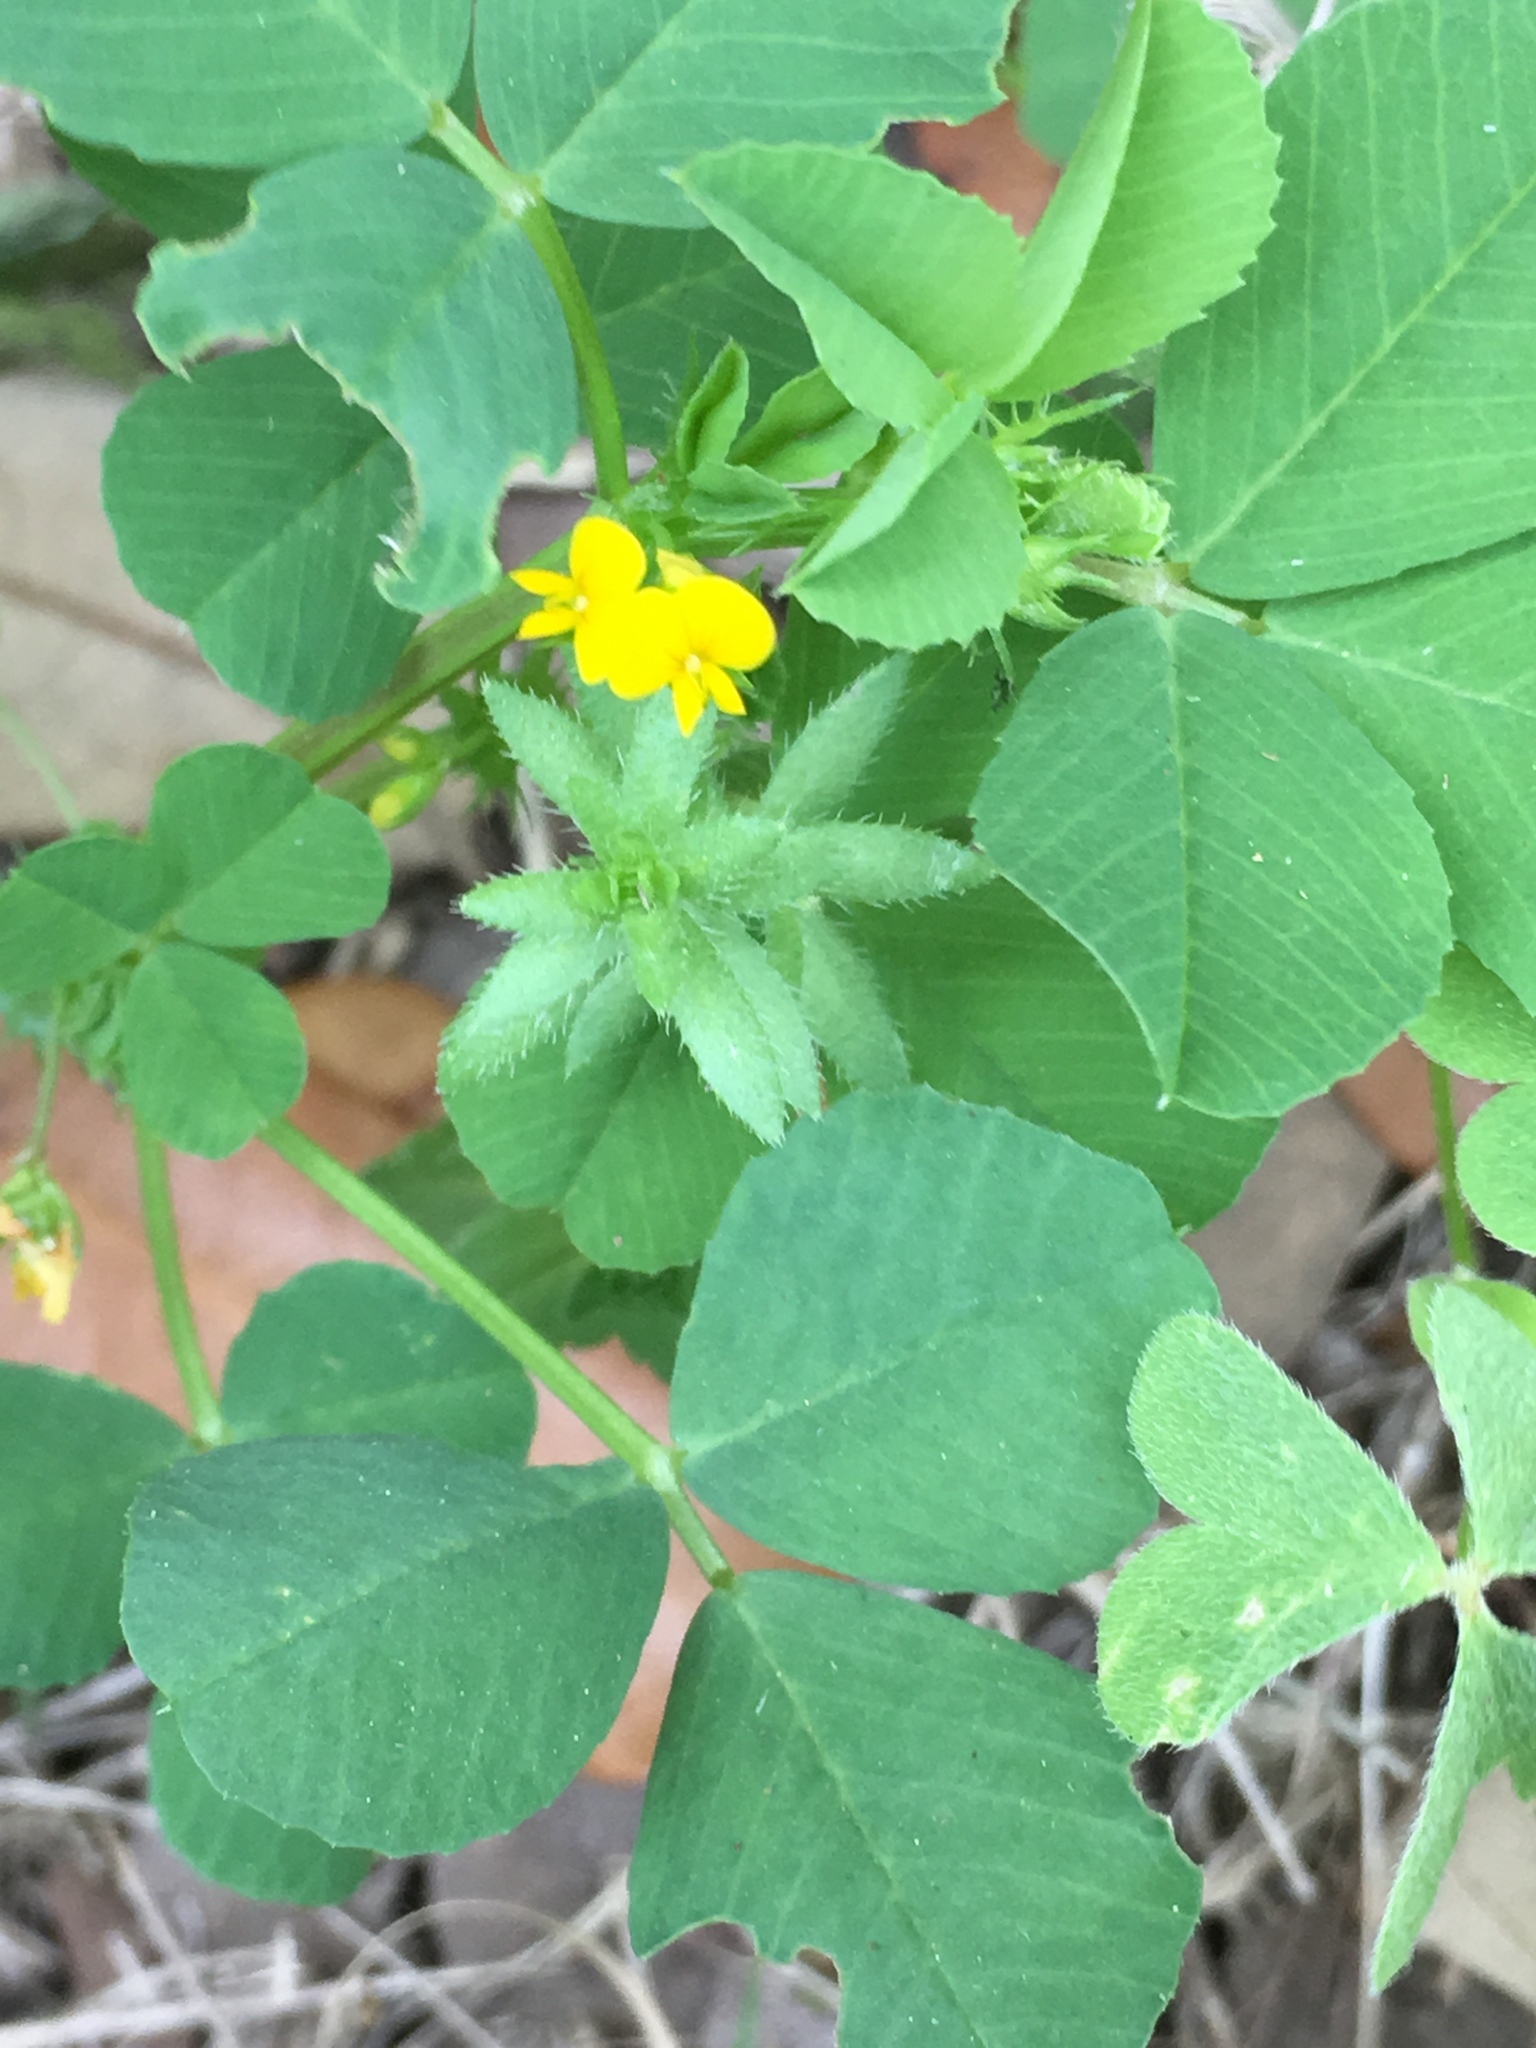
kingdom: Plantae
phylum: Tracheophyta
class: Magnoliopsida
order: Fabales
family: Fabaceae
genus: Medicago
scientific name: Medicago polymorpha
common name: Burclover
